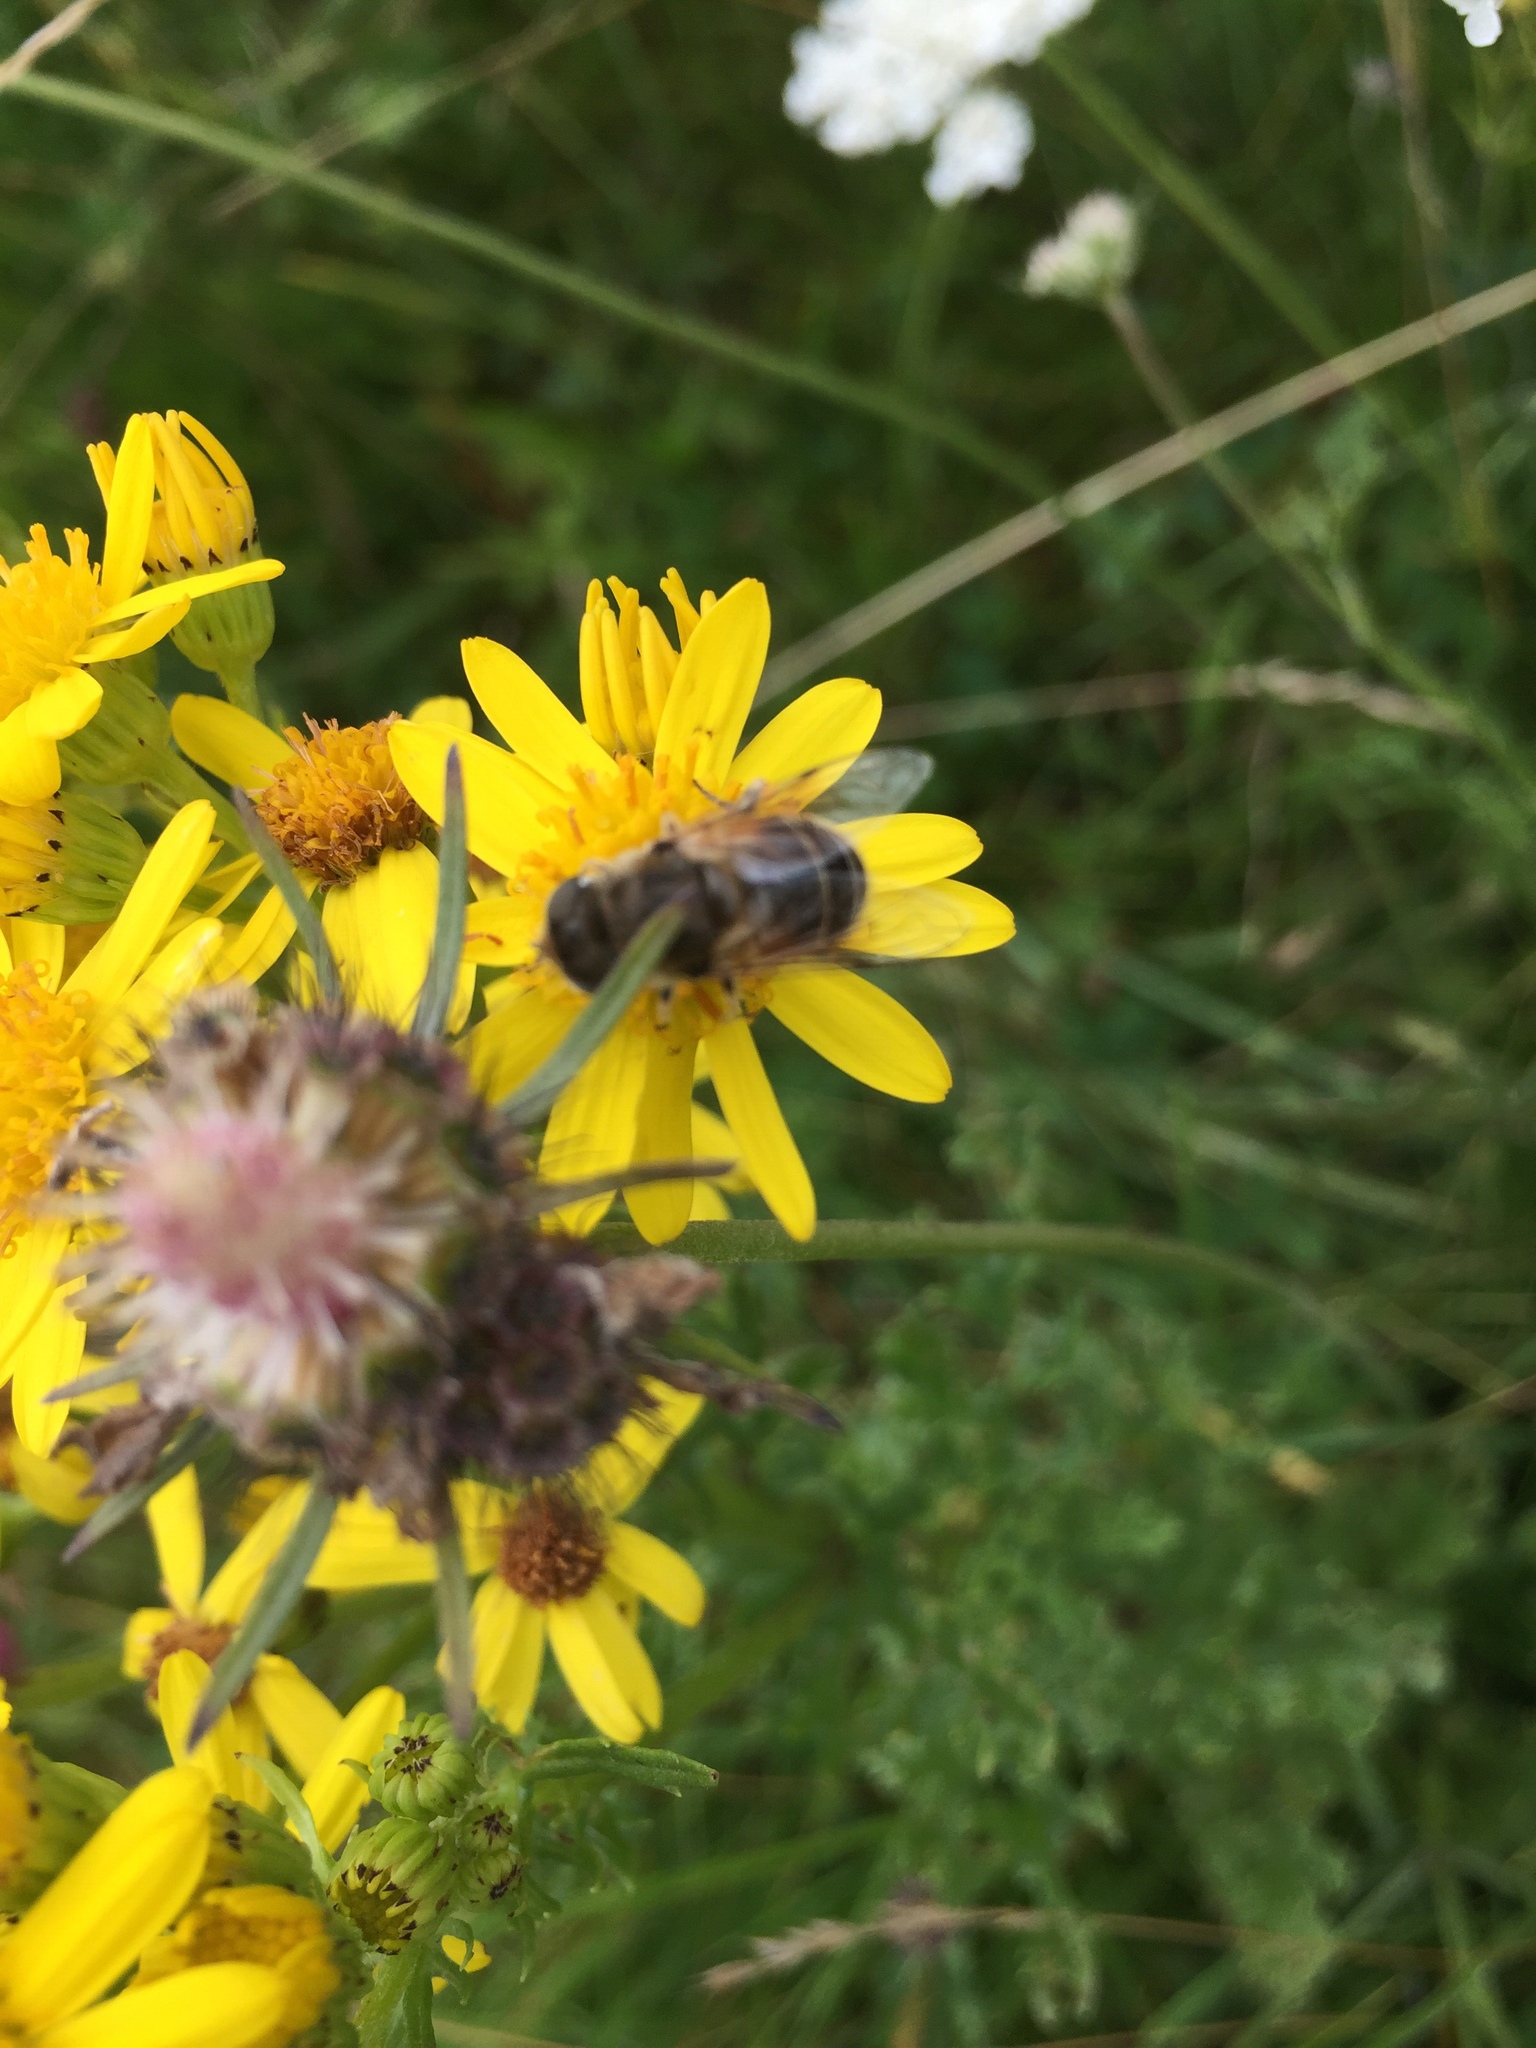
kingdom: Animalia
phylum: Arthropoda
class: Insecta
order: Diptera
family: Syrphidae
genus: Eristalis
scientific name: Eristalis
